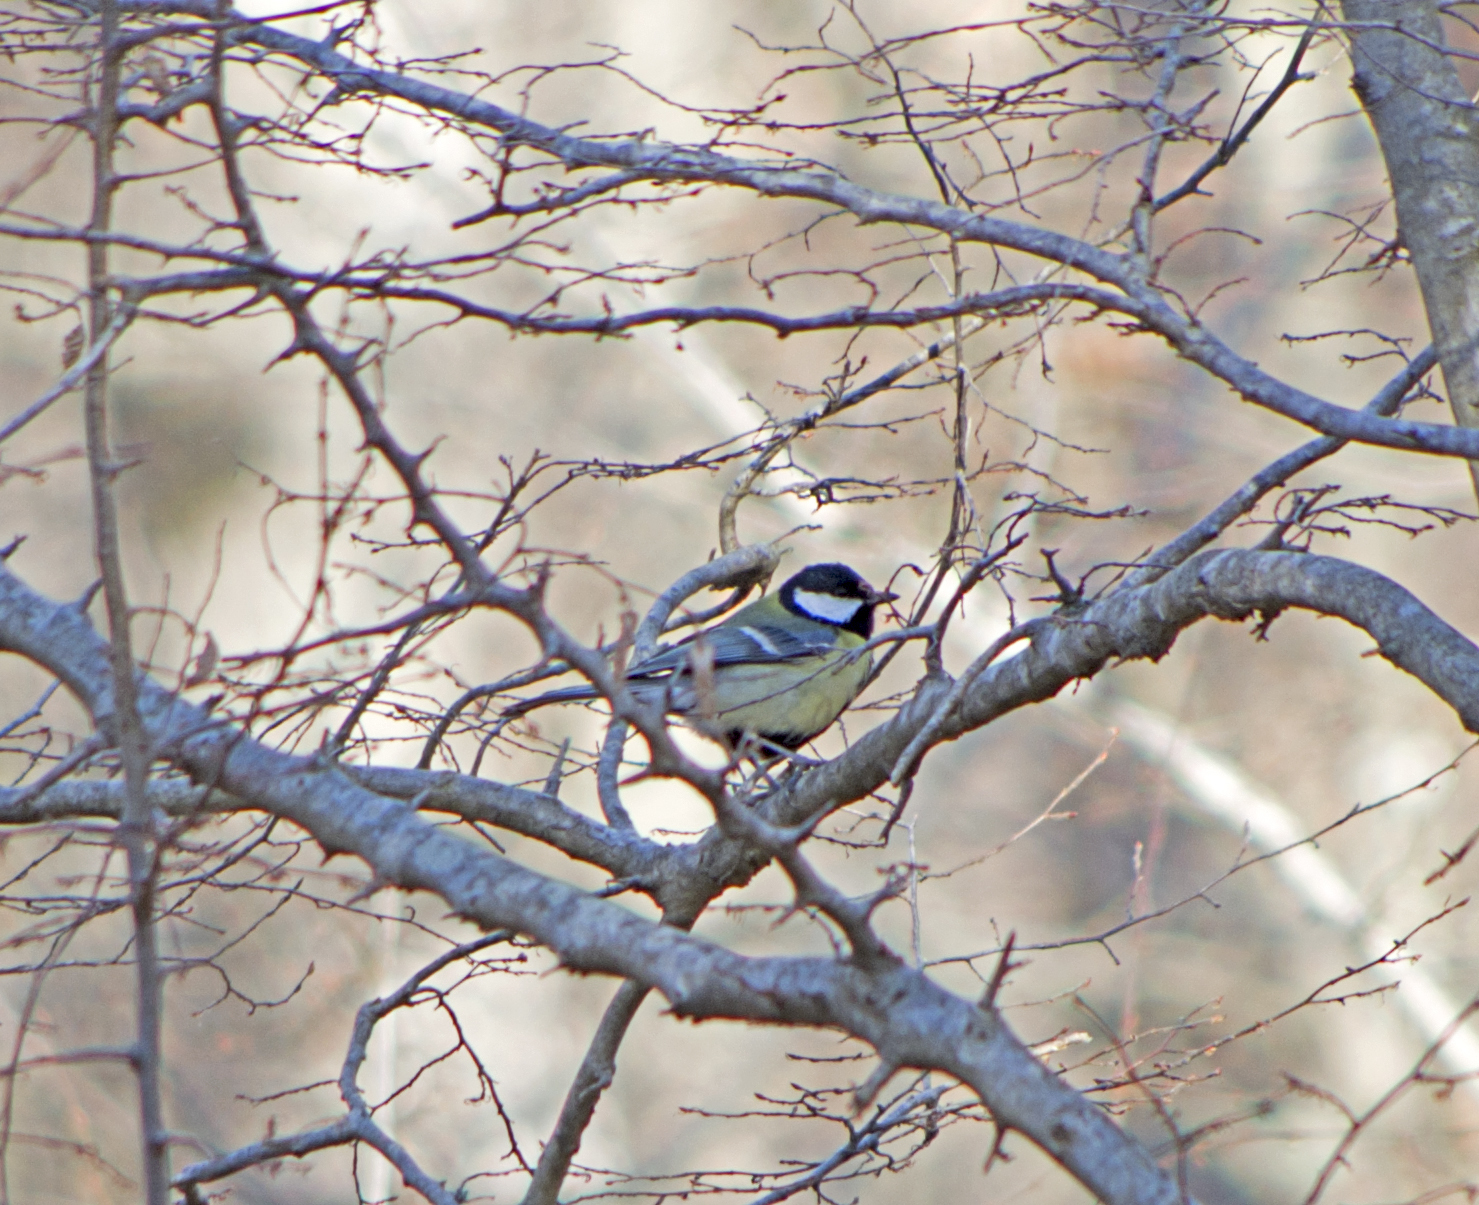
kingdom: Animalia
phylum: Chordata
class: Aves
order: Passeriformes
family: Paridae
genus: Parus
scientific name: Parus major
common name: Great tit
